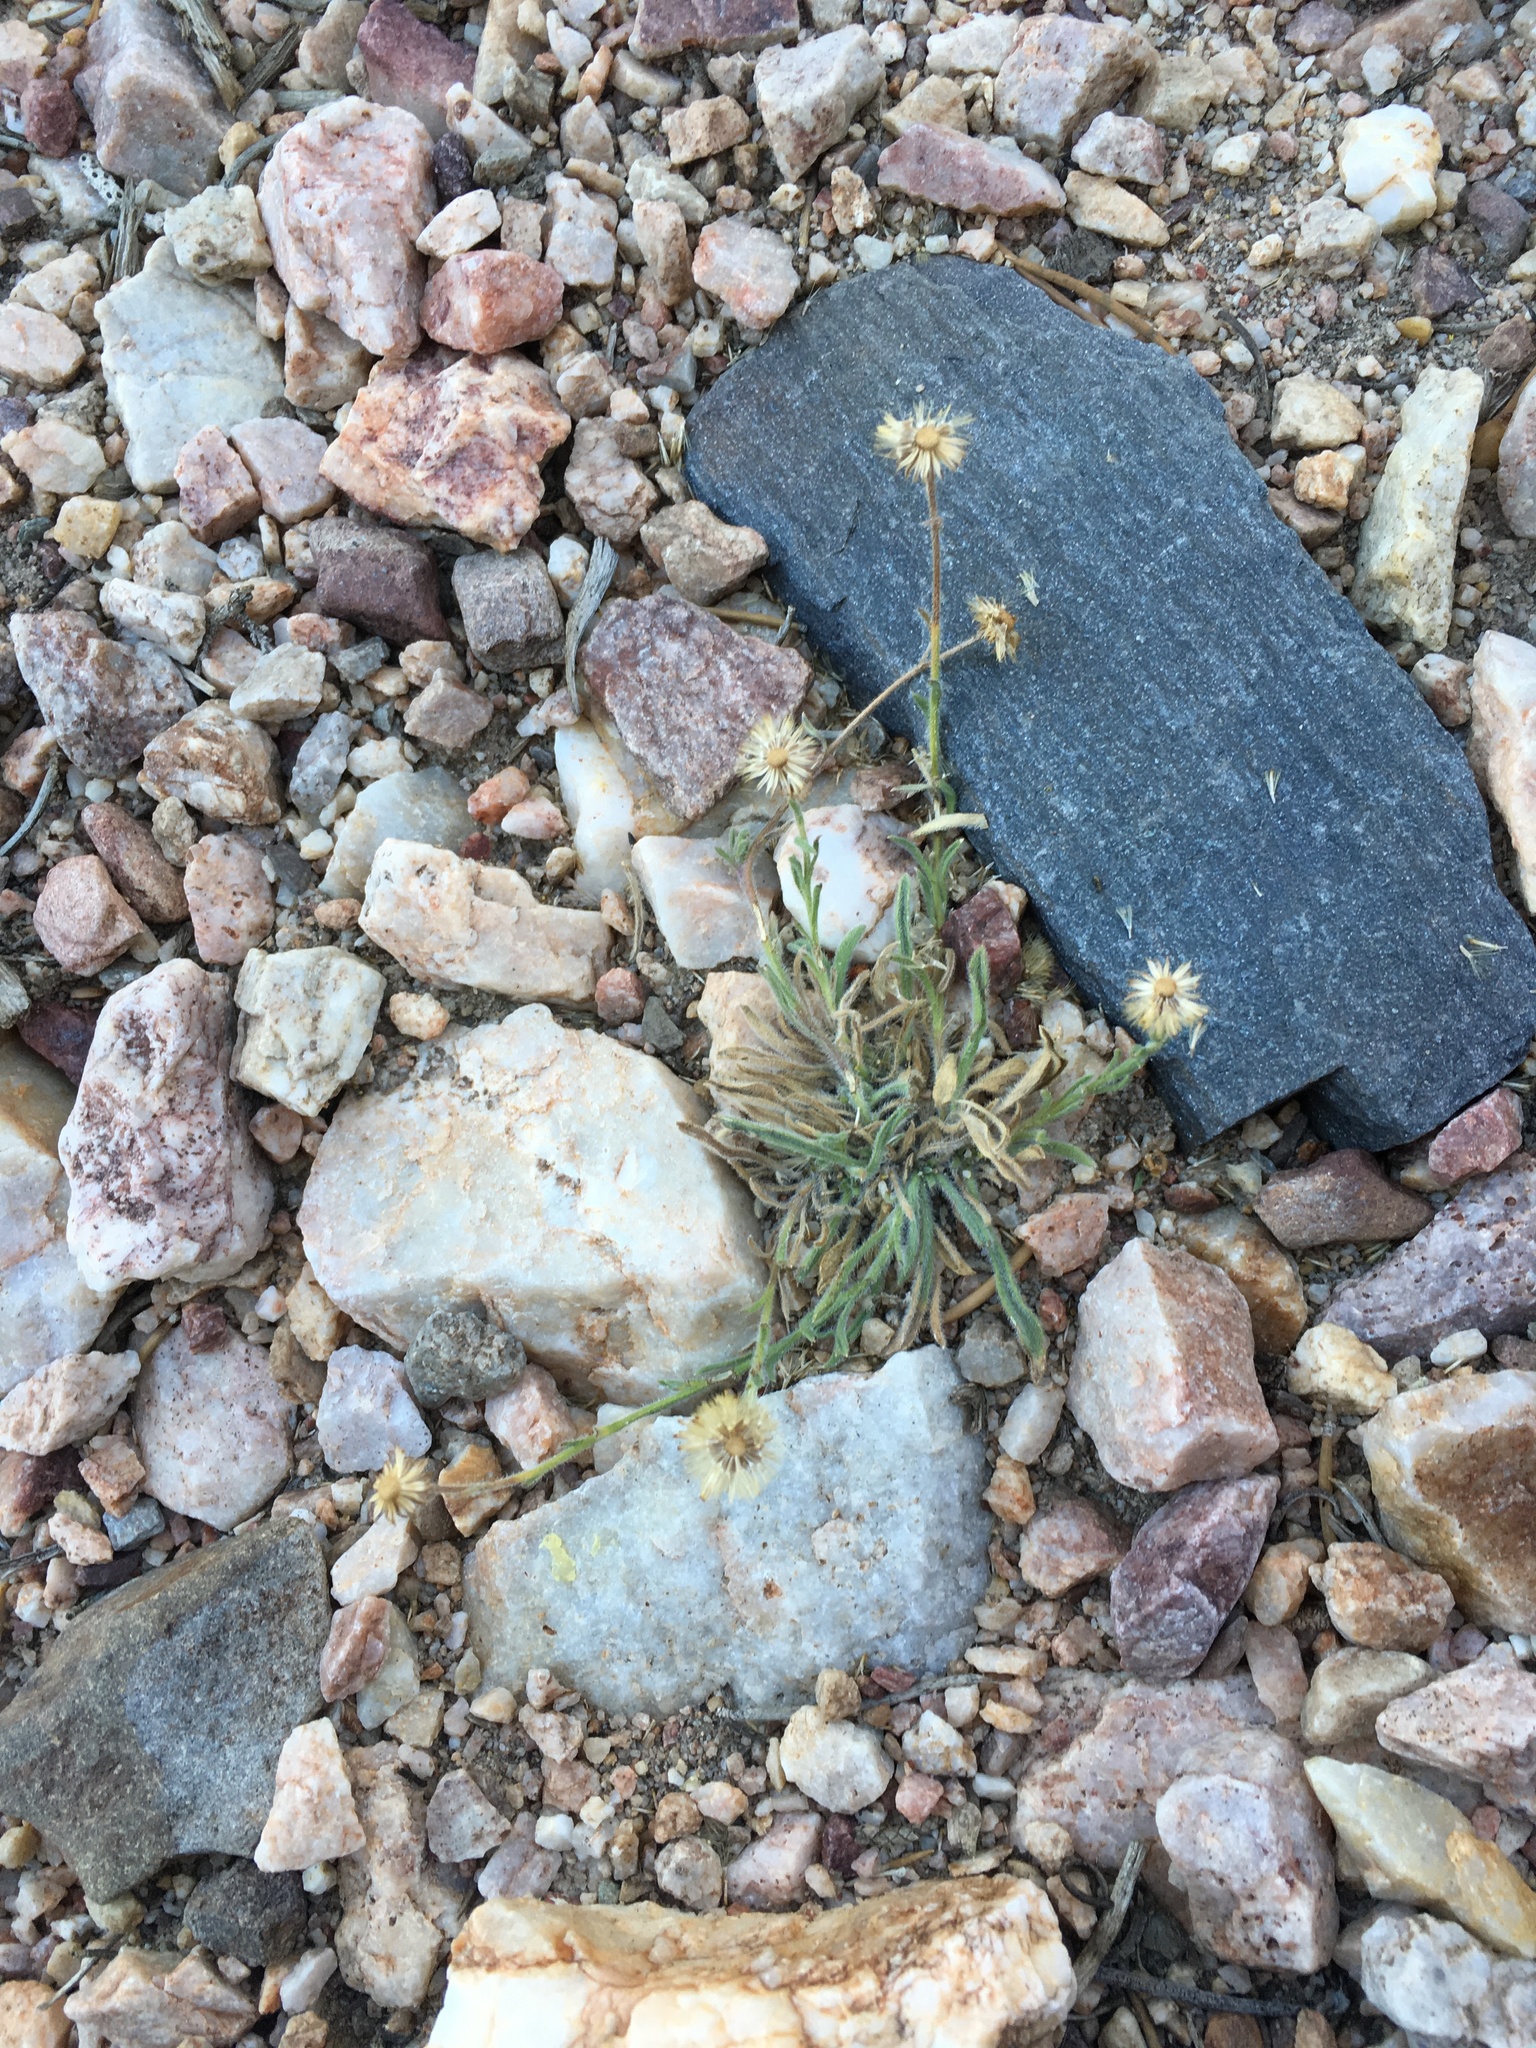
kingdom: Plantae
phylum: Tracheophyta
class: Magnoliopsida
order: Asterales
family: Asteraceae
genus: Erigeron
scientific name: Erigeron clokeyi
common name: Clokey's fleabane
